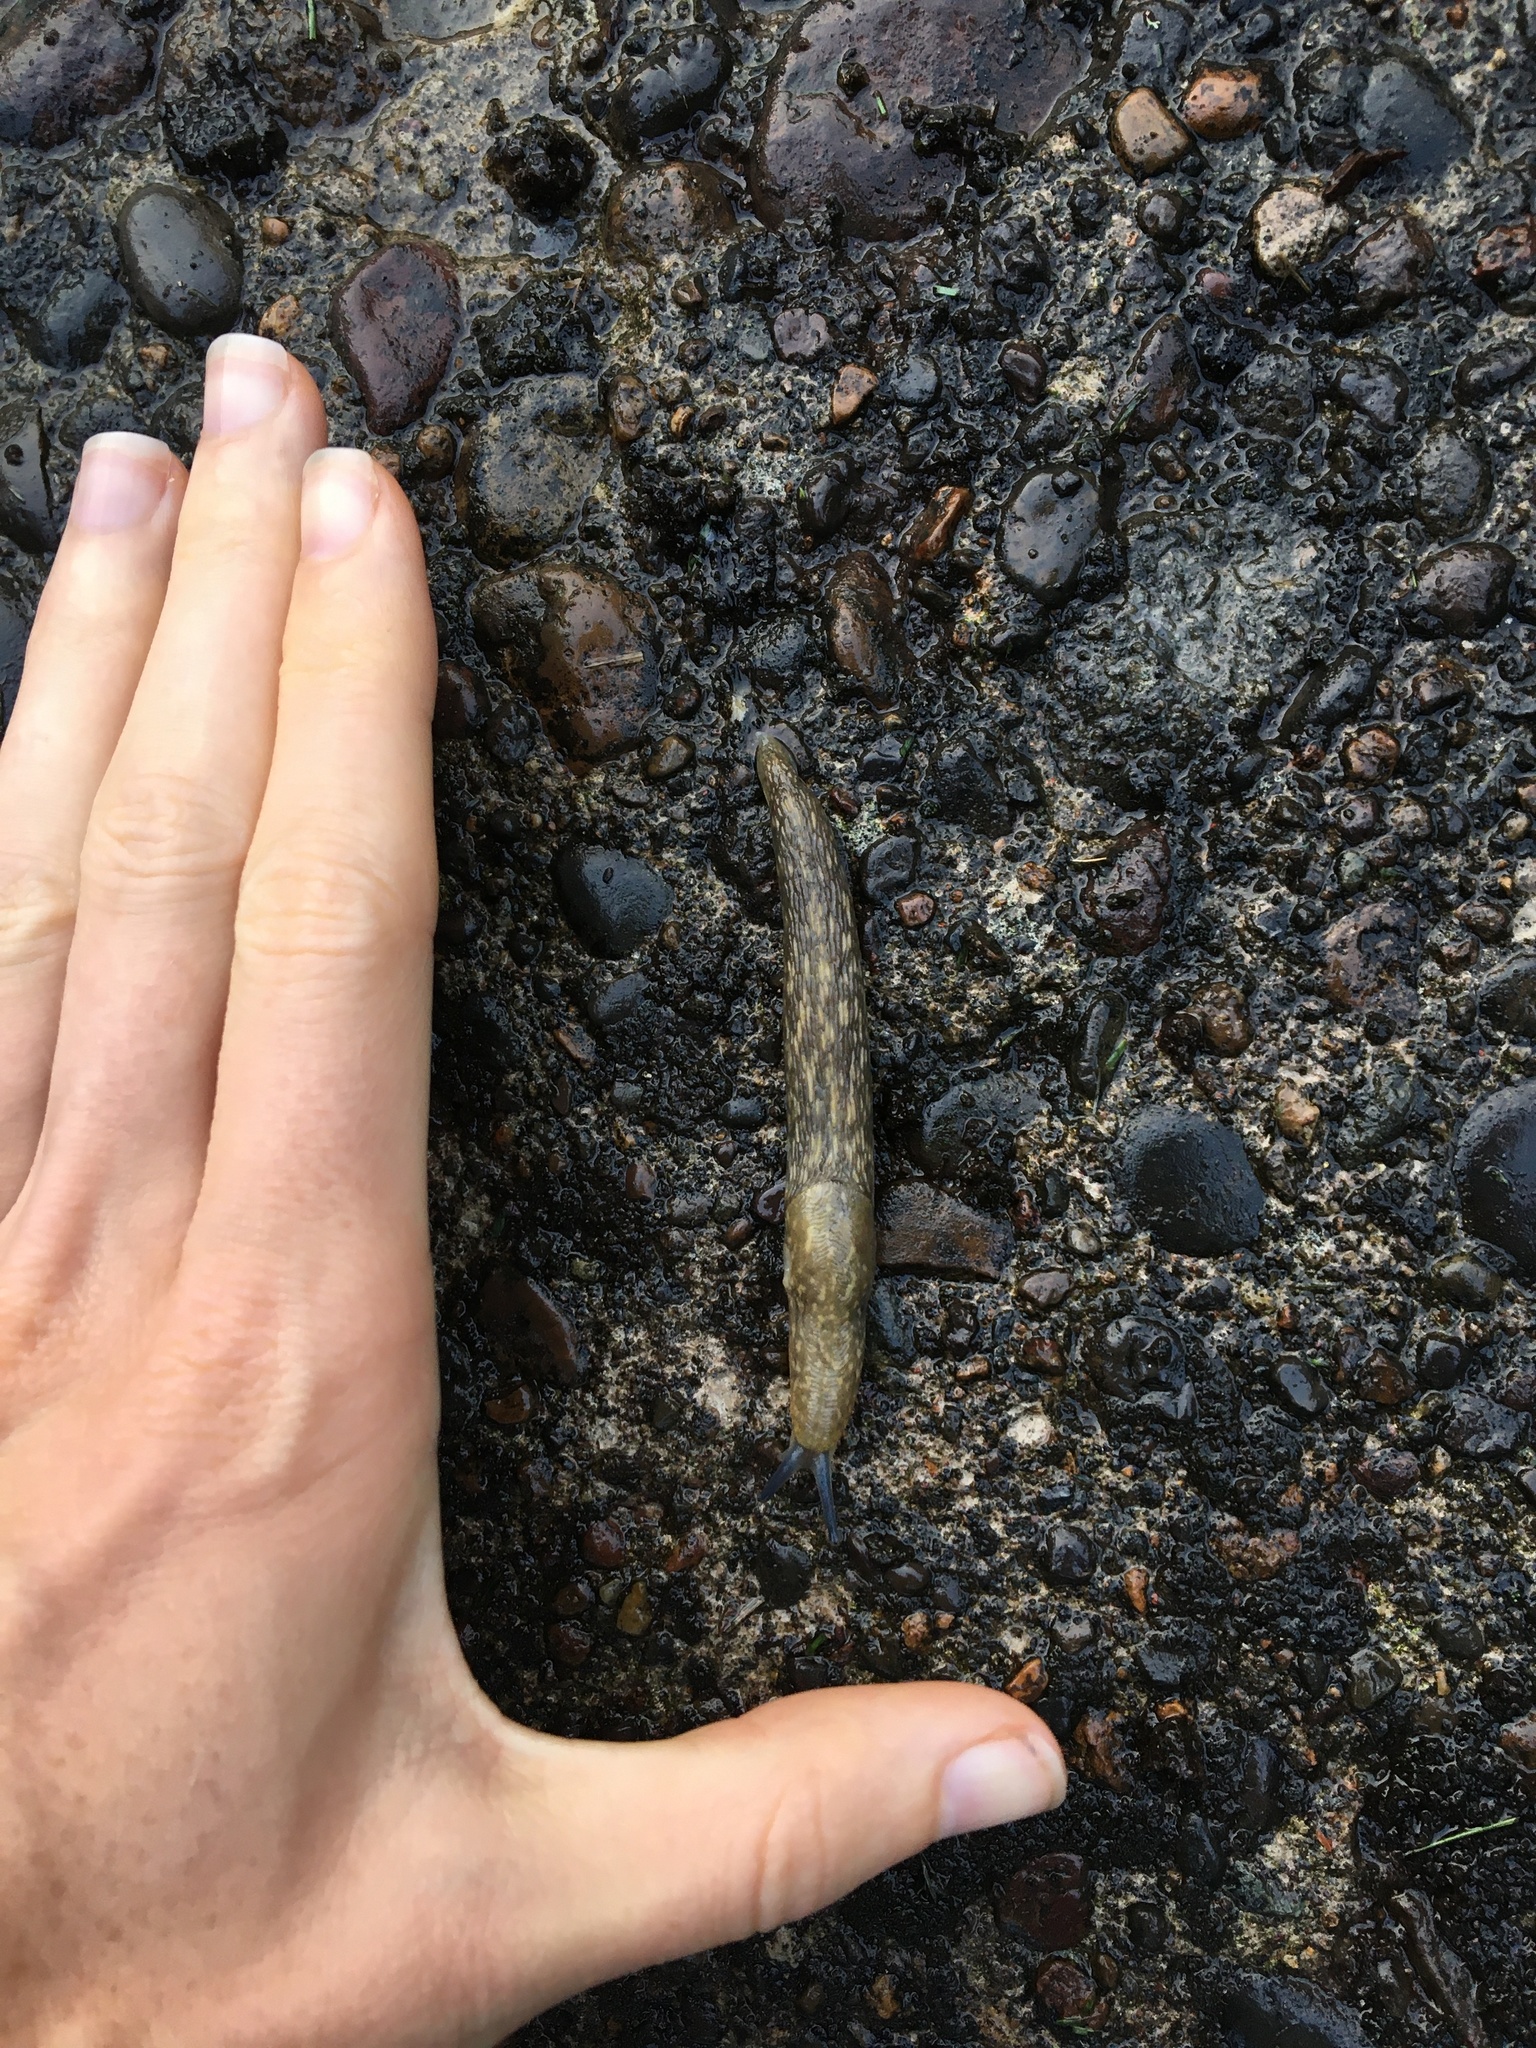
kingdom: Animalia
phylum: Mollusca
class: Gastropoda
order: Stylommatophora
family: Limacidae
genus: Limacus
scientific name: Limacus flavus
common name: Yellow gardenslug
